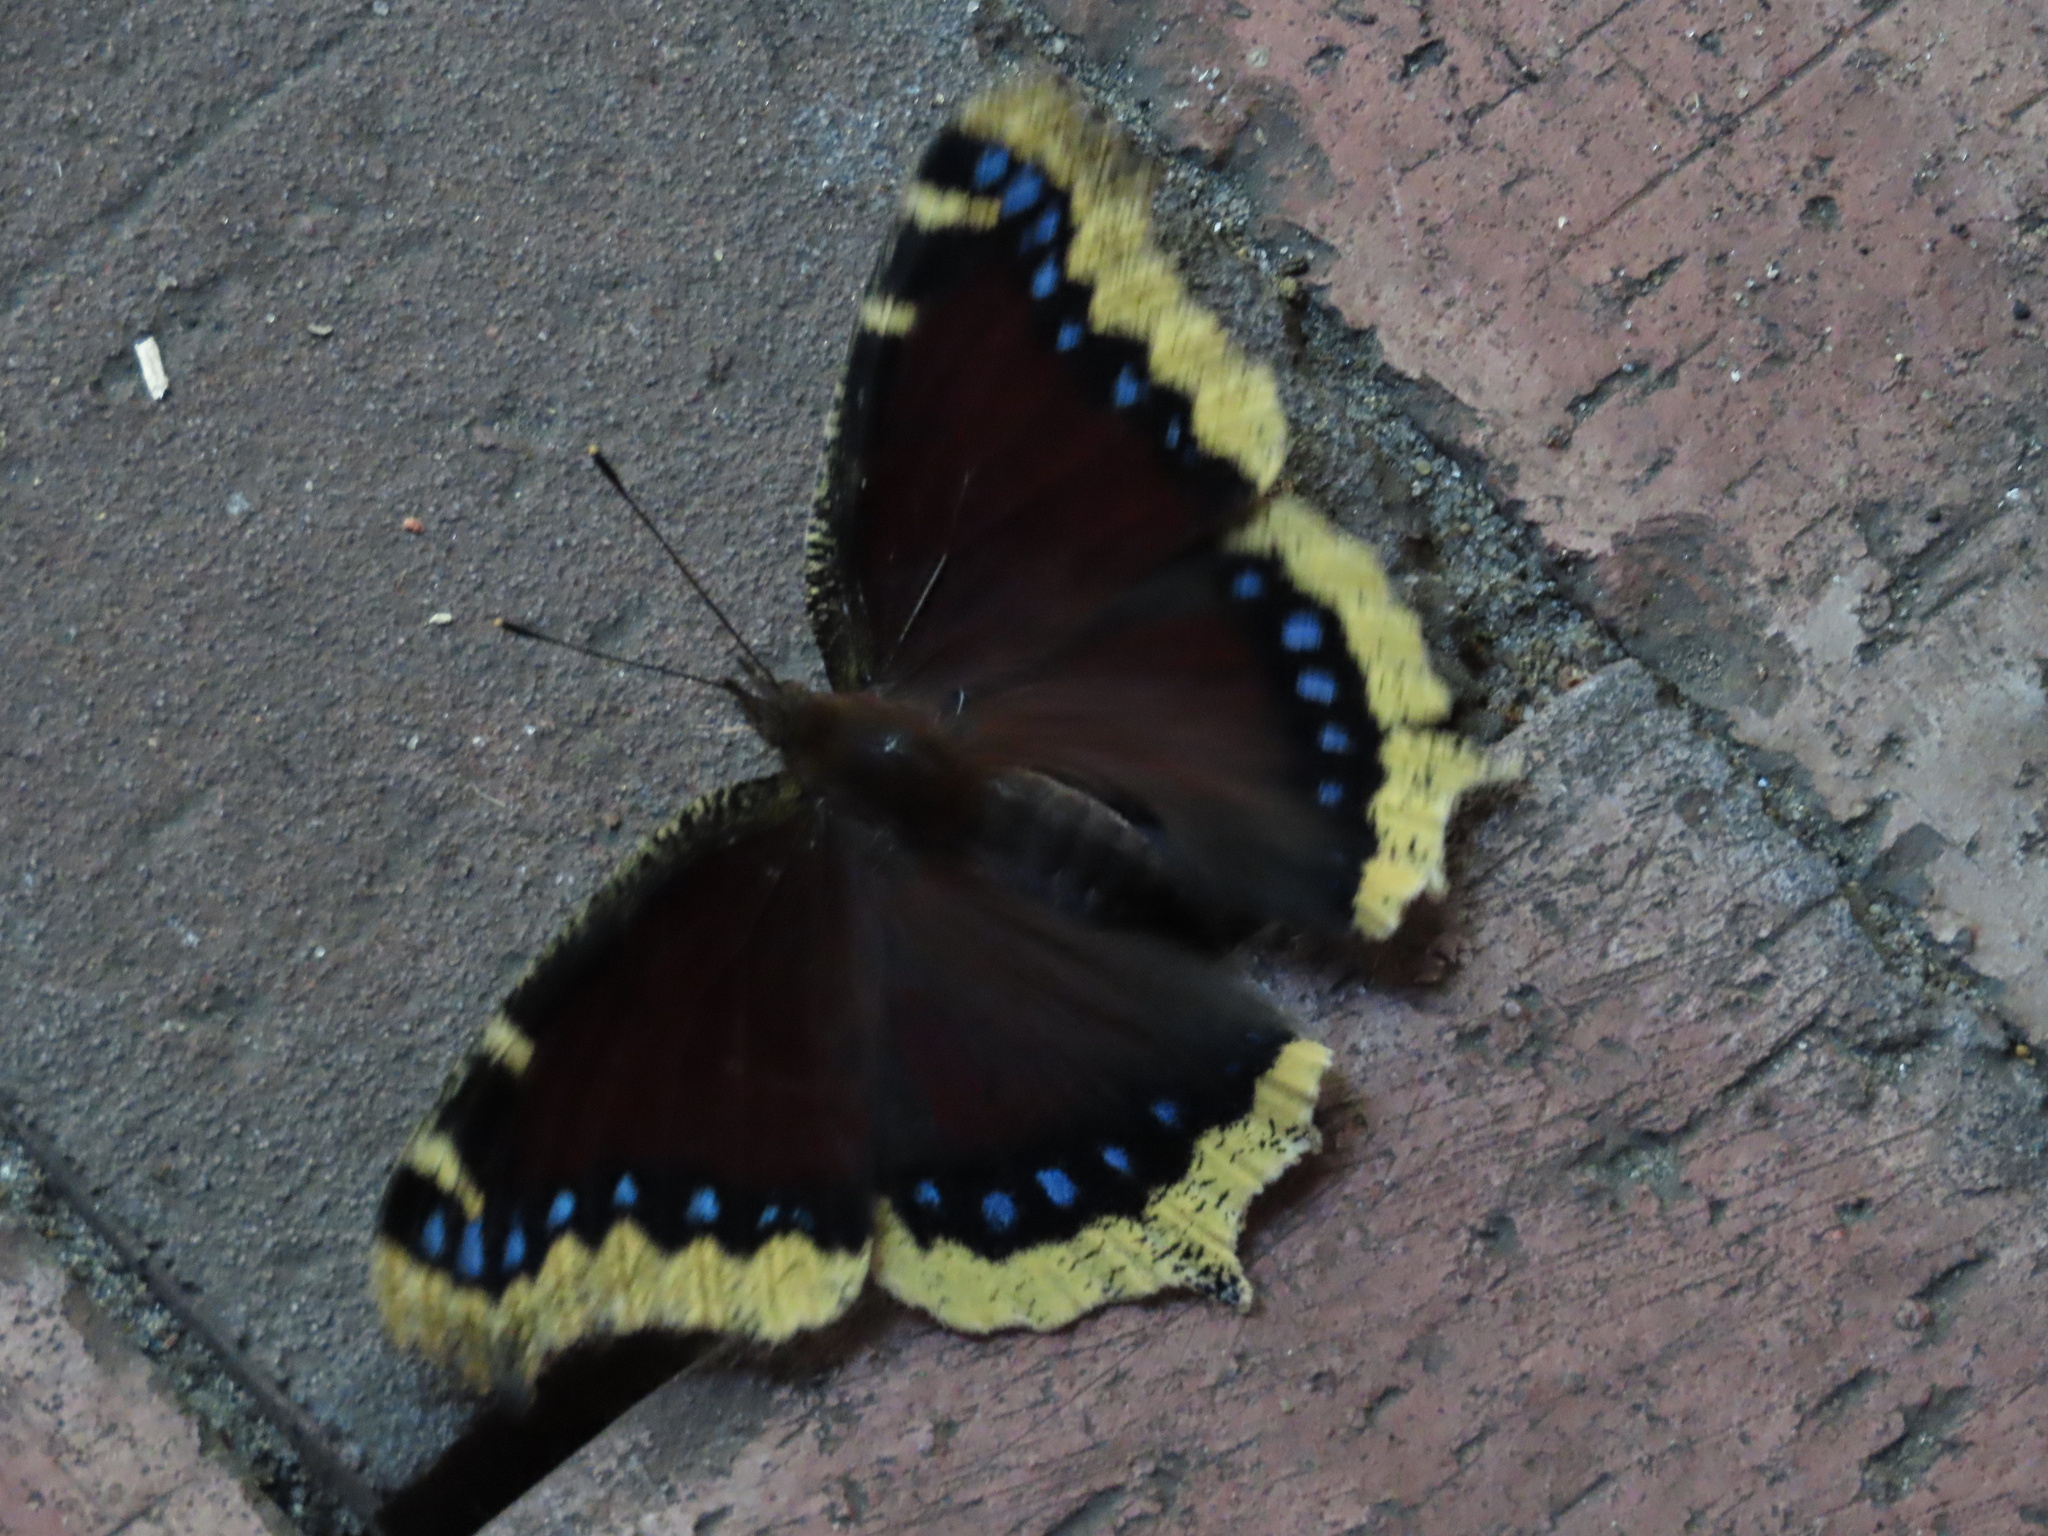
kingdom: Animalia
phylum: Arthropoda
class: Insecta
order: Lepidoptera
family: Nymphalidae
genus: Nymphalis
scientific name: Nymphalis antiopa
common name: Camberwell beauty
